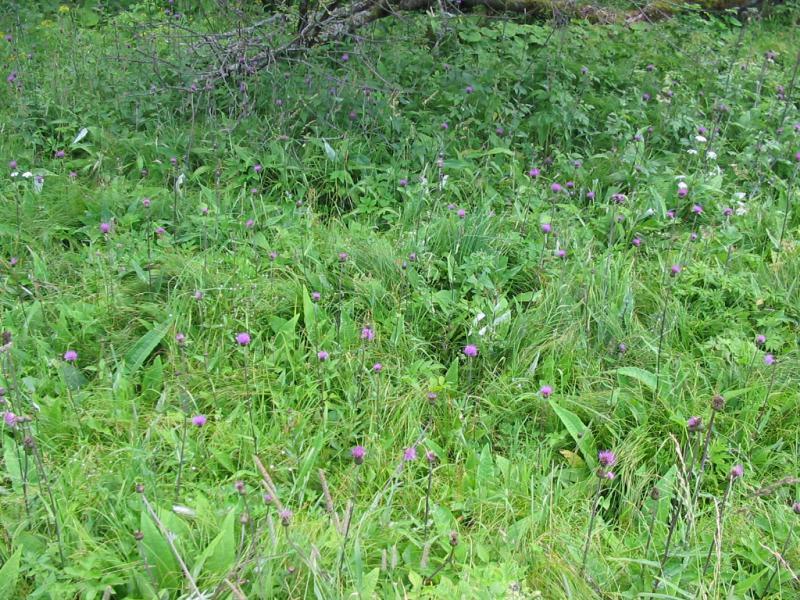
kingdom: Plantae
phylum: Tracheophyta
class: Magnoliopsida
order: Asterales
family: Asteraceae
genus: Cirsium
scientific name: Cirsium heterophyllum
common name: Melancholy thistle
